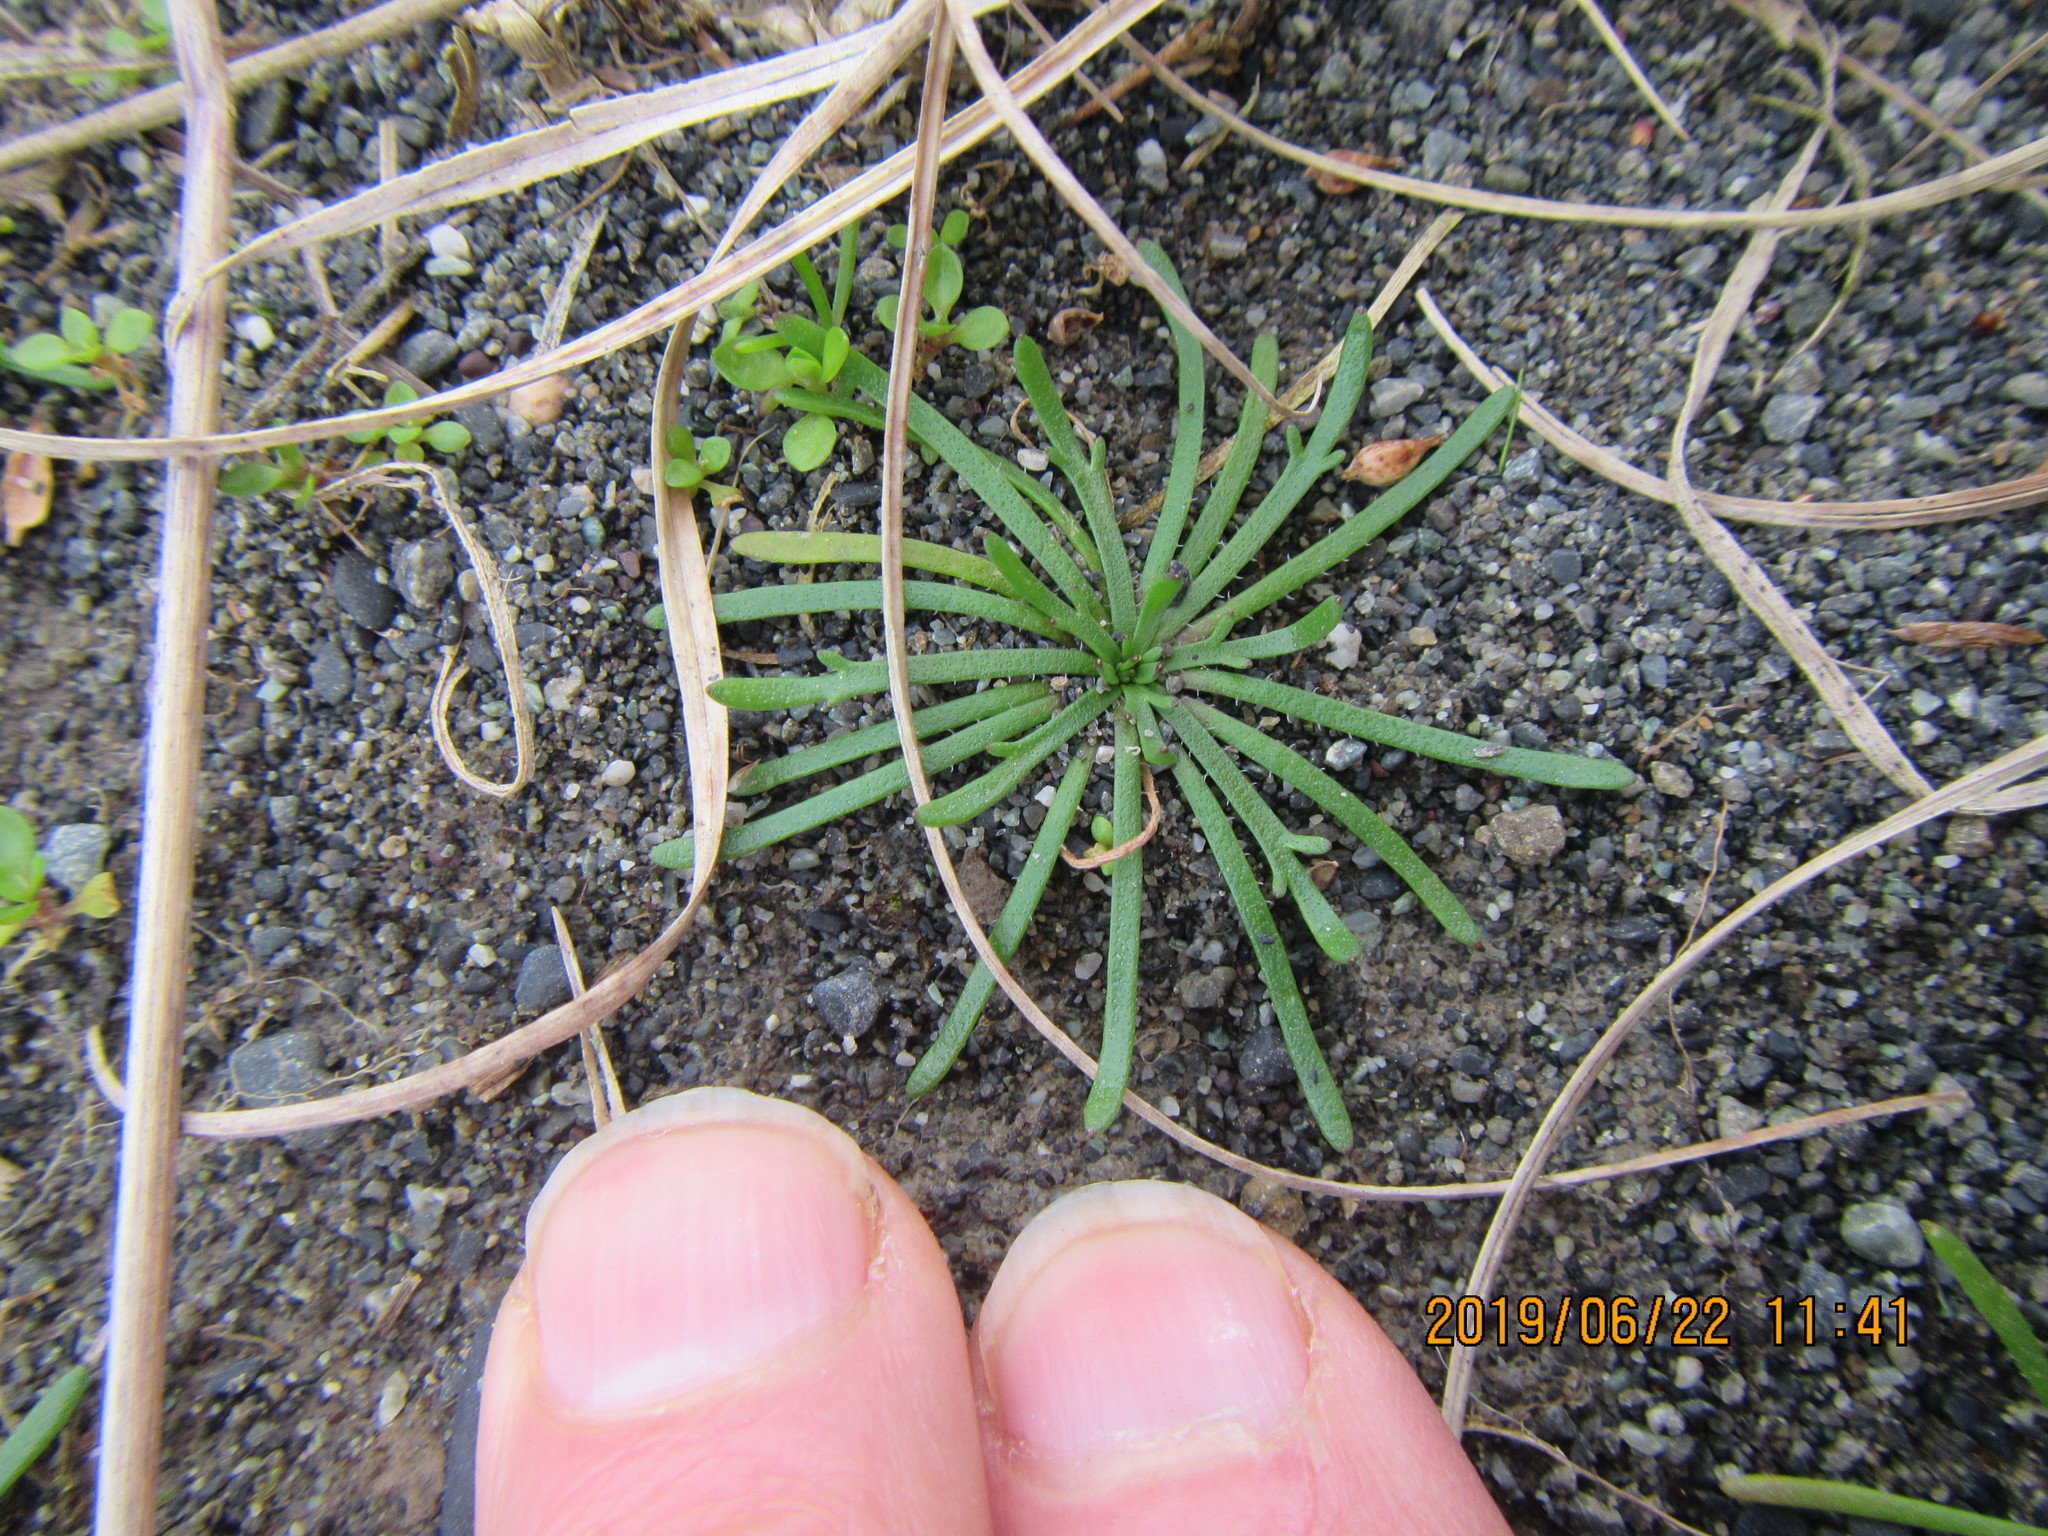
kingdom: Plantae
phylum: Tracheophyta
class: Magnoliopsida
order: Lamiales
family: Plantaginaceae
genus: Plantago
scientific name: Plantago coronopus
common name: Buck's-horn plantain
